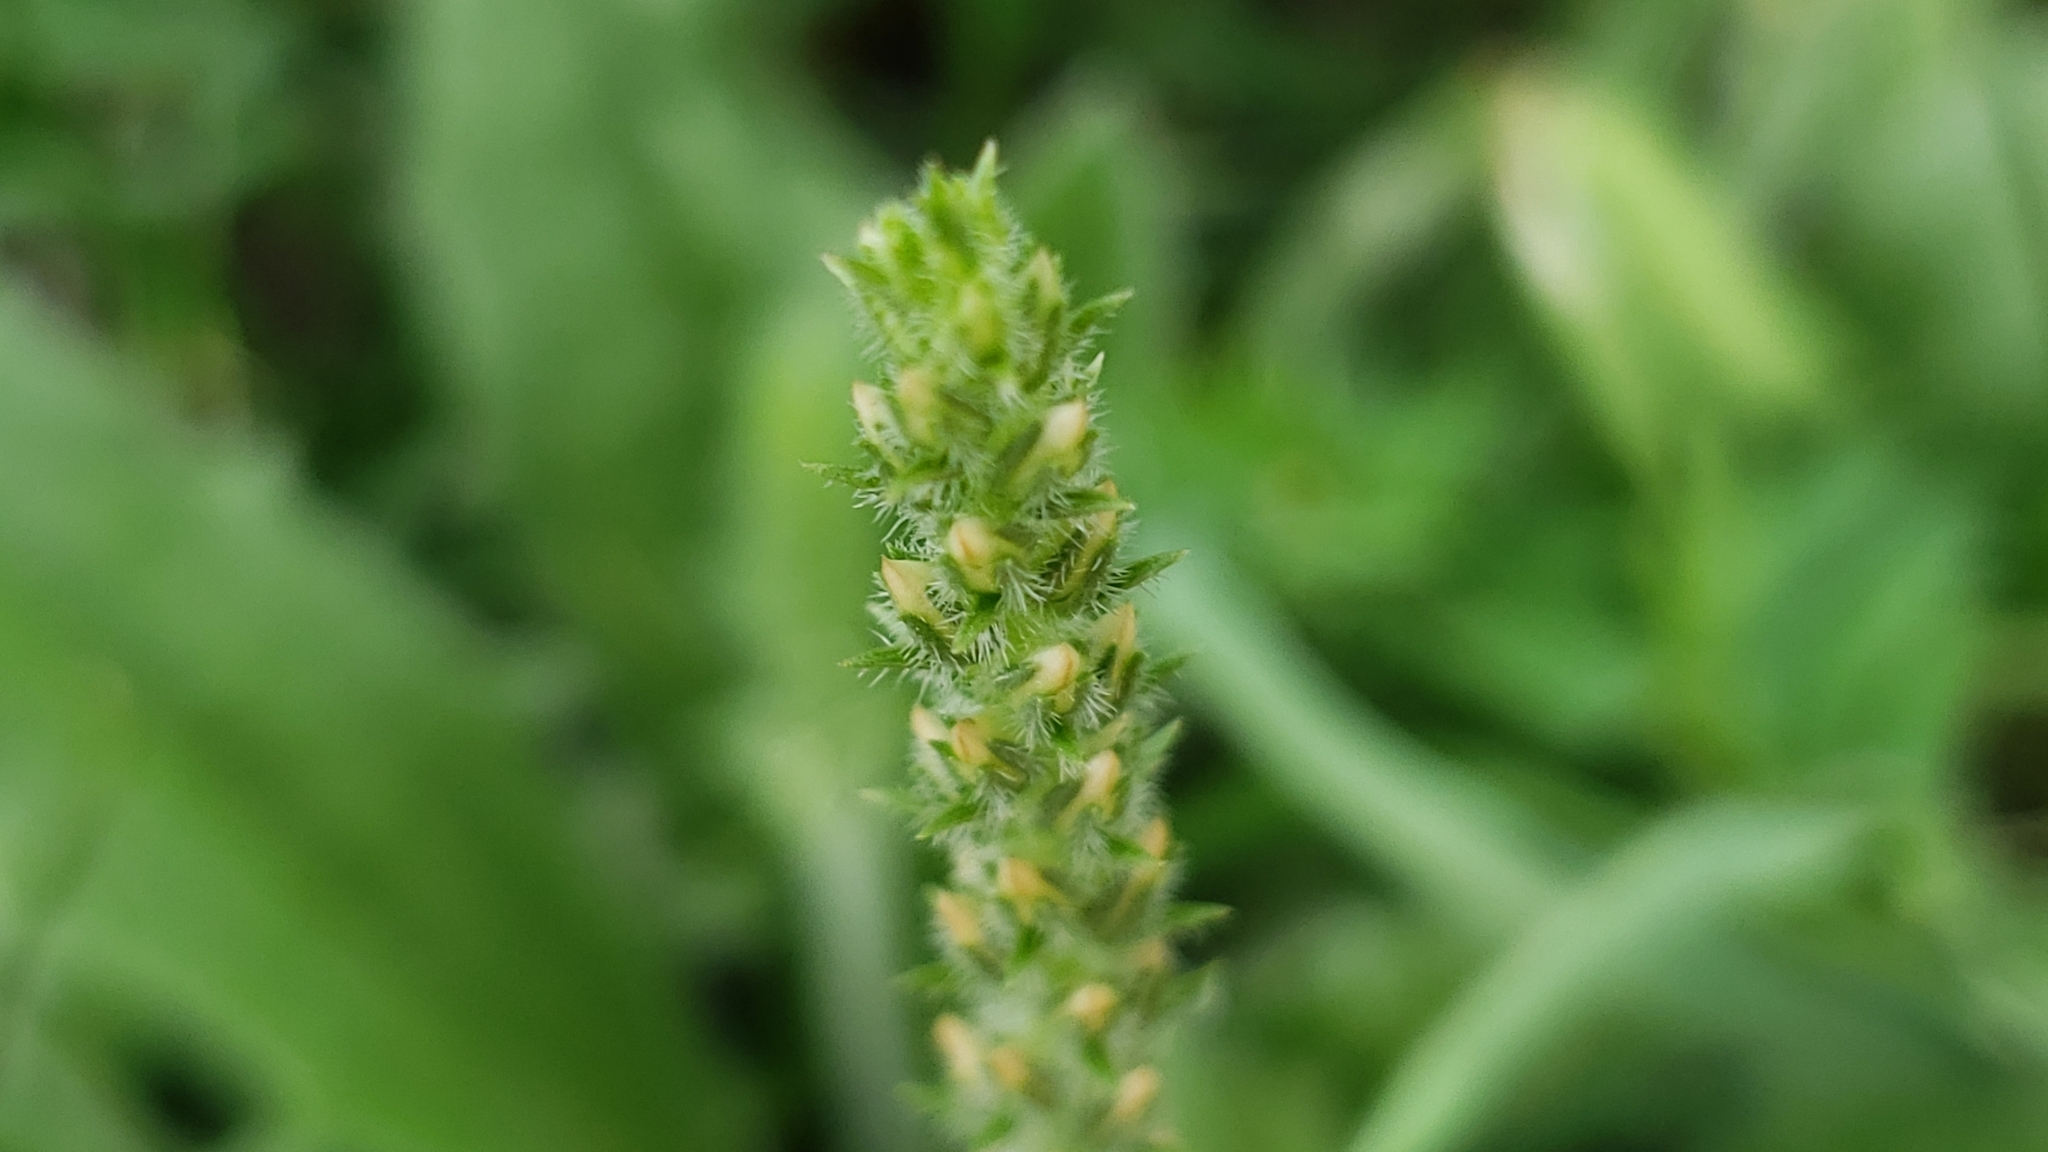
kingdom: Plantae
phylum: Tracheophyta
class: Magnoliopsida
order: Lamiales
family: Plantaginaceae
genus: Plantago
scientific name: Plantago rhodosperma
